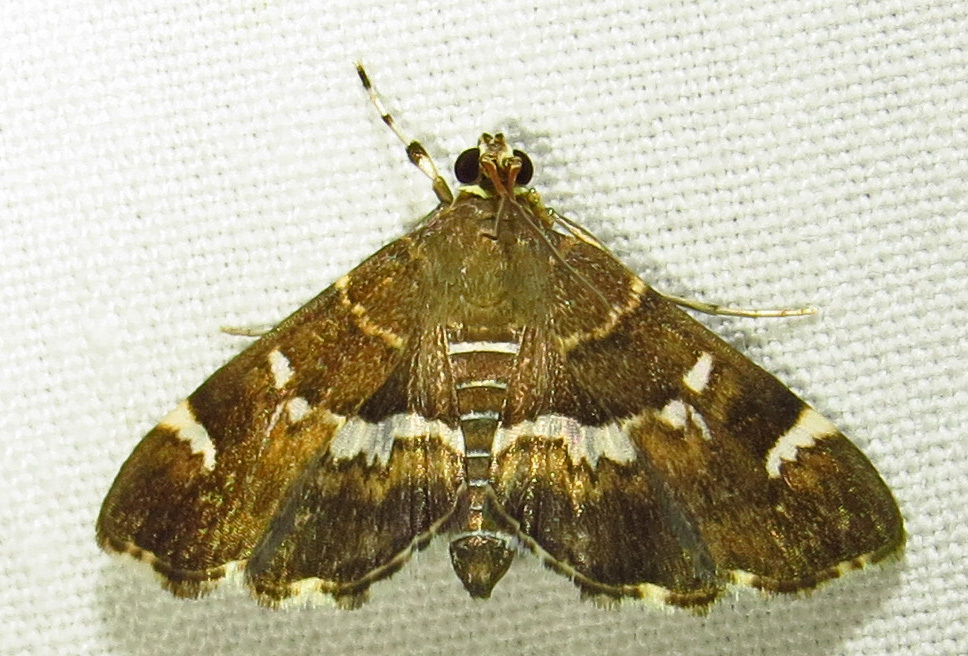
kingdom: Animalia
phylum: Arthropoda
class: Insecta
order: Lepidoptera
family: Crambidae
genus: Hymenia
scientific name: Hymenia perspectalis
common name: Spotted beet webworm
